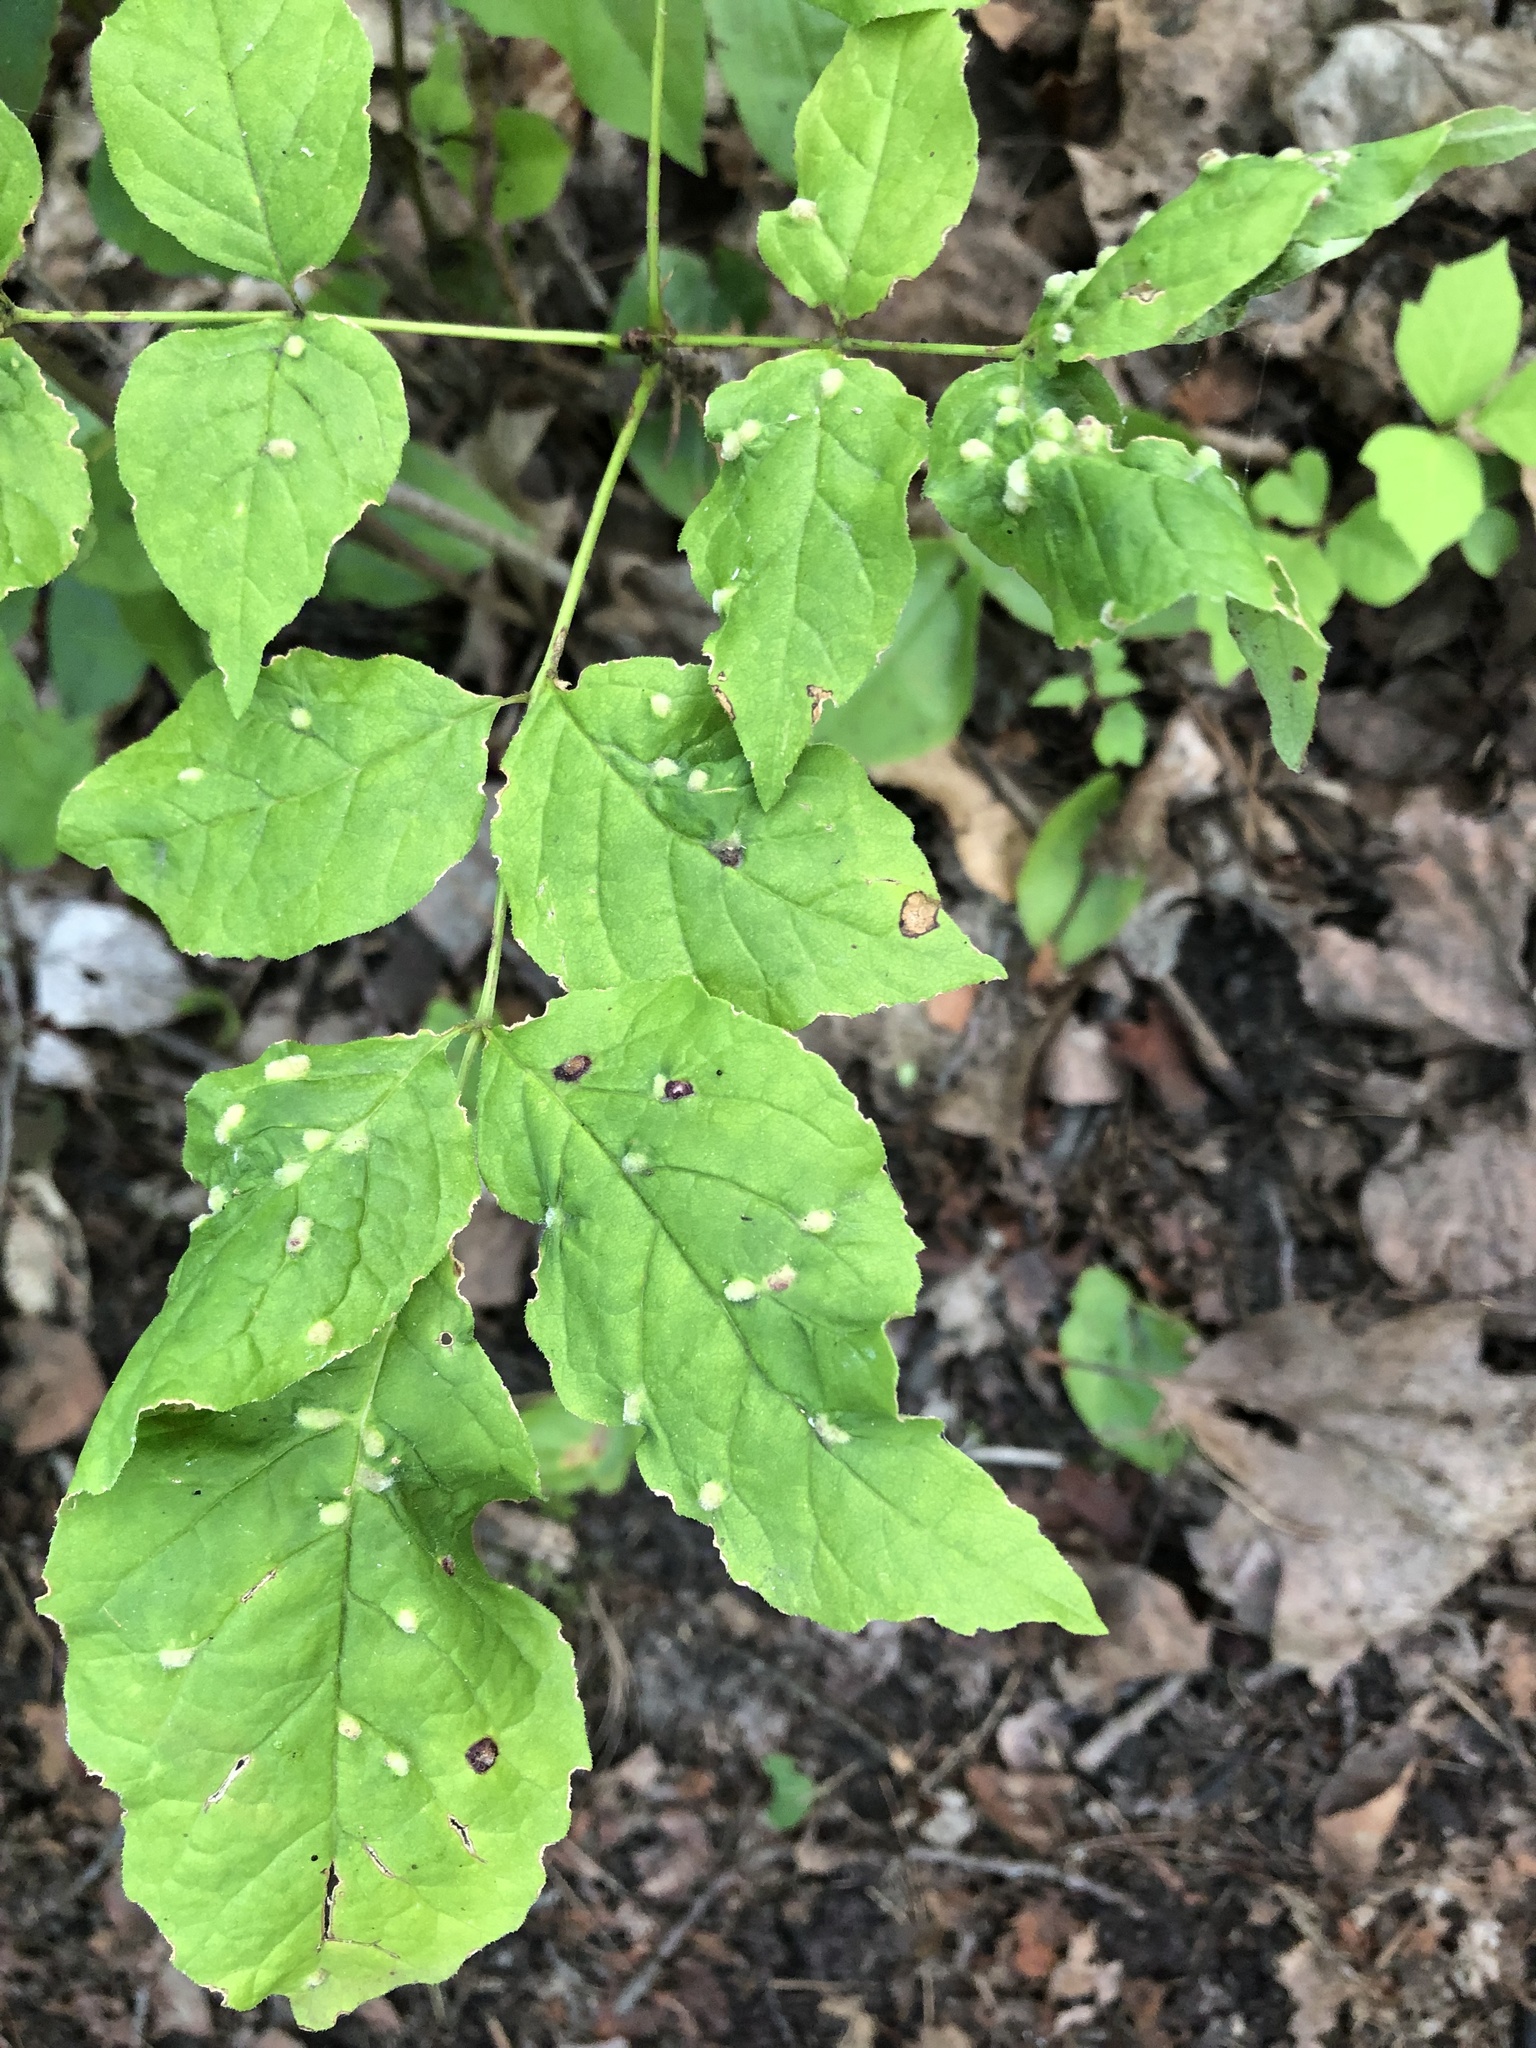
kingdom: Animalia
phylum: Arthropoda
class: Arachnida
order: Trombidiformes
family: Eriophyidae
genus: Aceria
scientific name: Aceria fraxinicola
